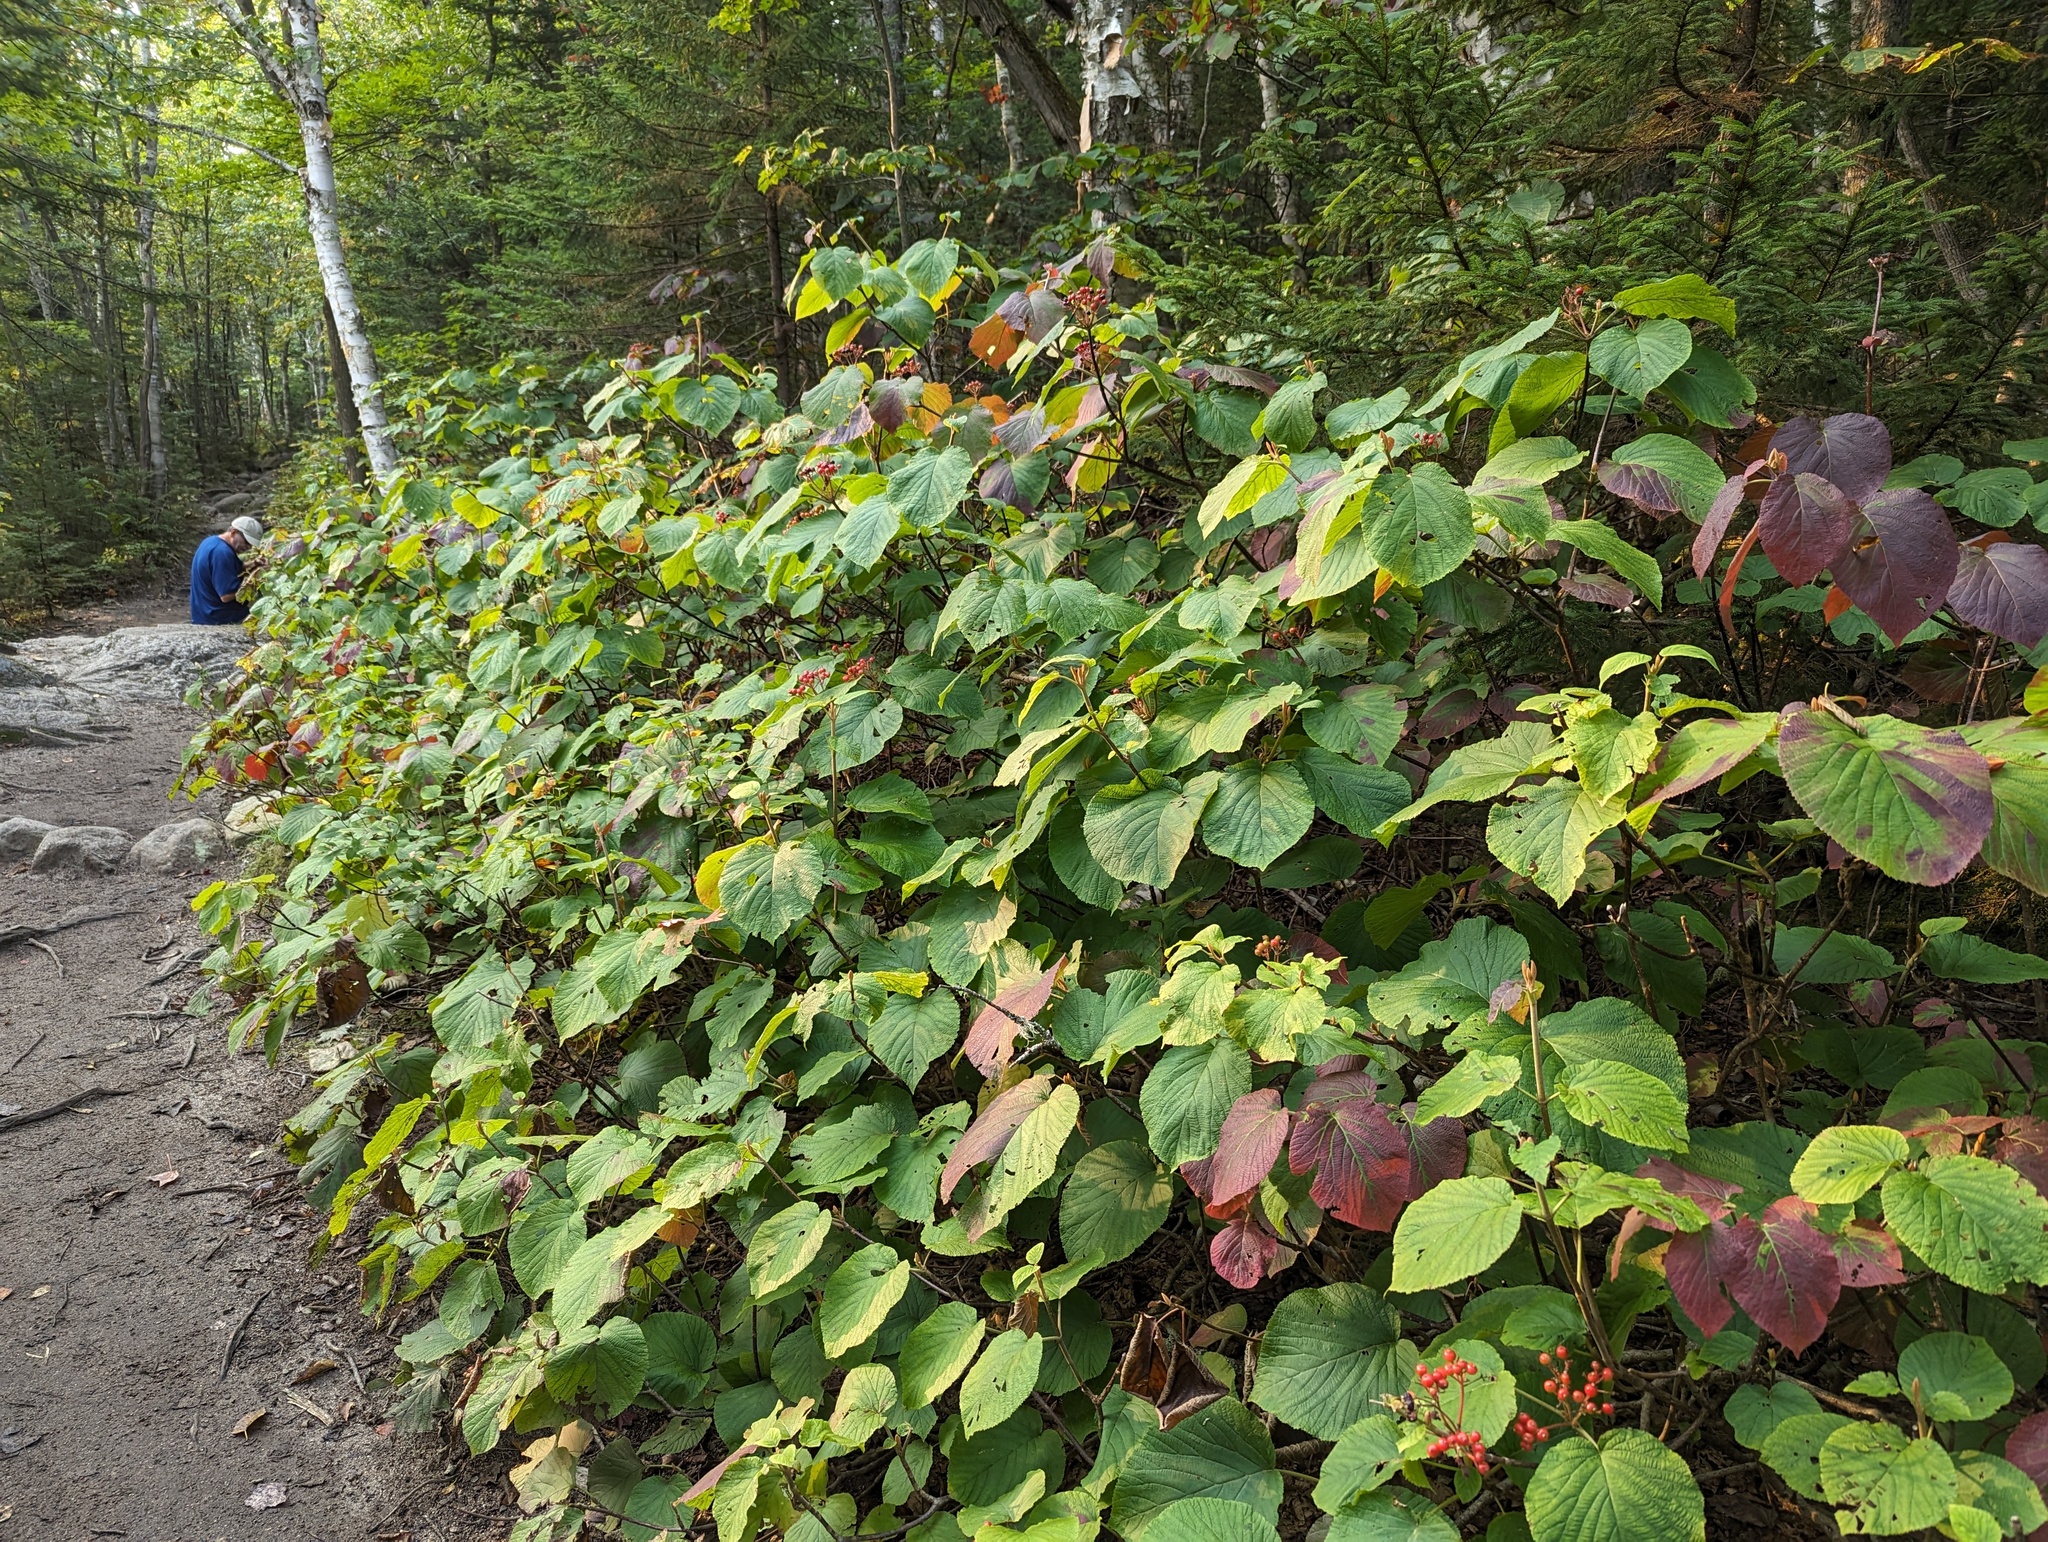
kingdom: Plantae
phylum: Tracheophyta
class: Magnoliopsida
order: Dipsacales
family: Viburnaceae
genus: Viburnum
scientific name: Viburnum lantanoides
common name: Hobblebush
